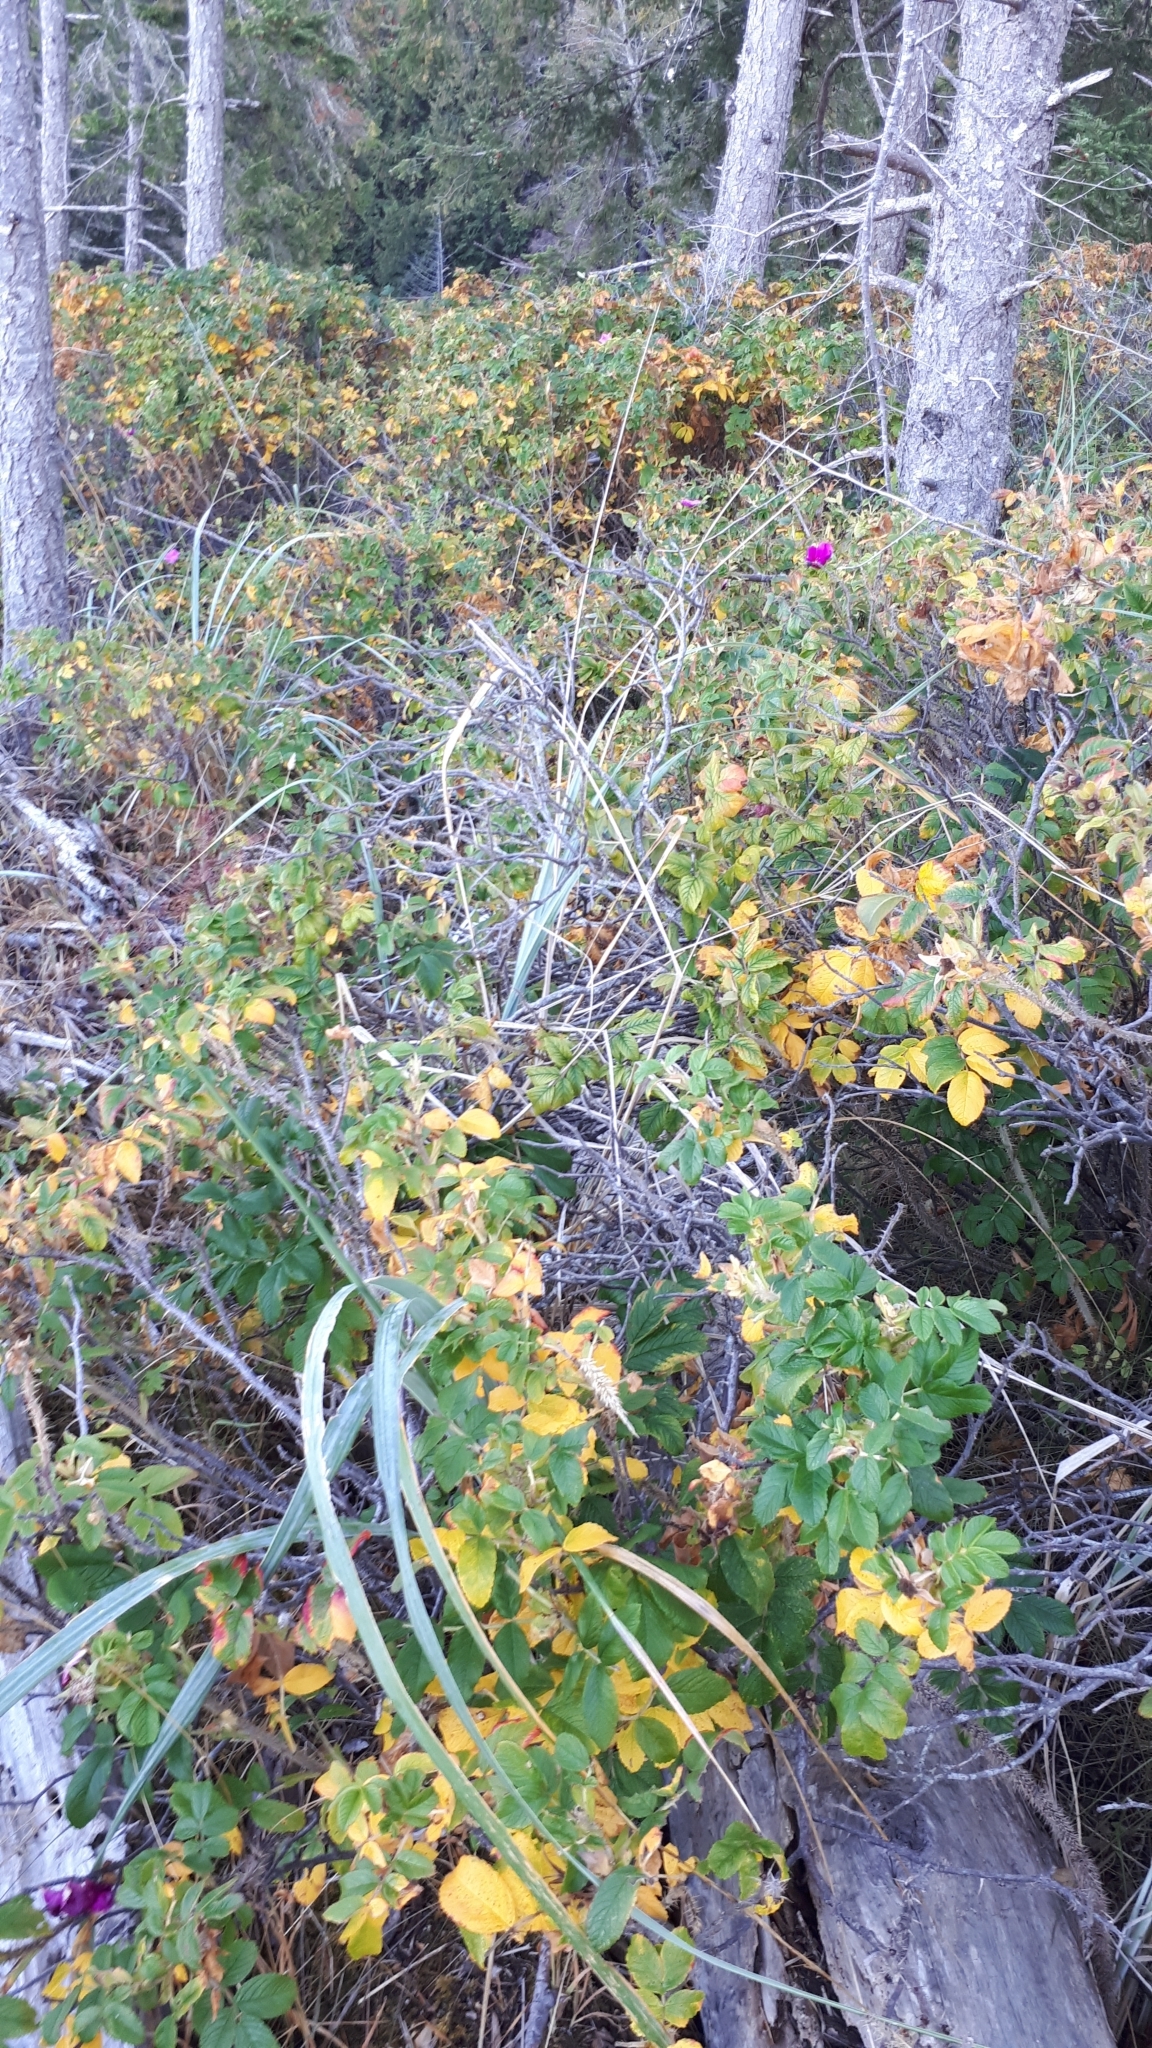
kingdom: Plantae
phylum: Tracheophyta
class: Magnoliopsida
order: Rosales
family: Rosaceae
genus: Rosa
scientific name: Rosa rugosa
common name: Japanese rose
